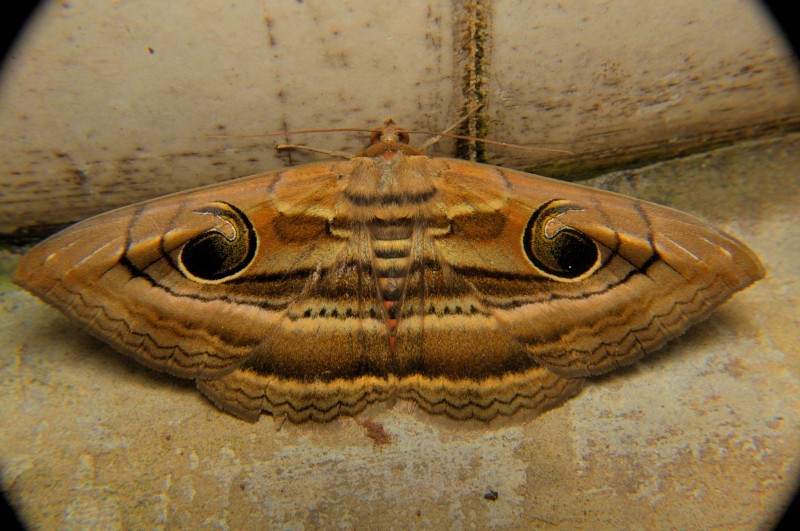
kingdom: Animalia
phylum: Arthropoda
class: Insecta
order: Lepidoptera
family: Erebidae
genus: Spirama
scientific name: Spirama
